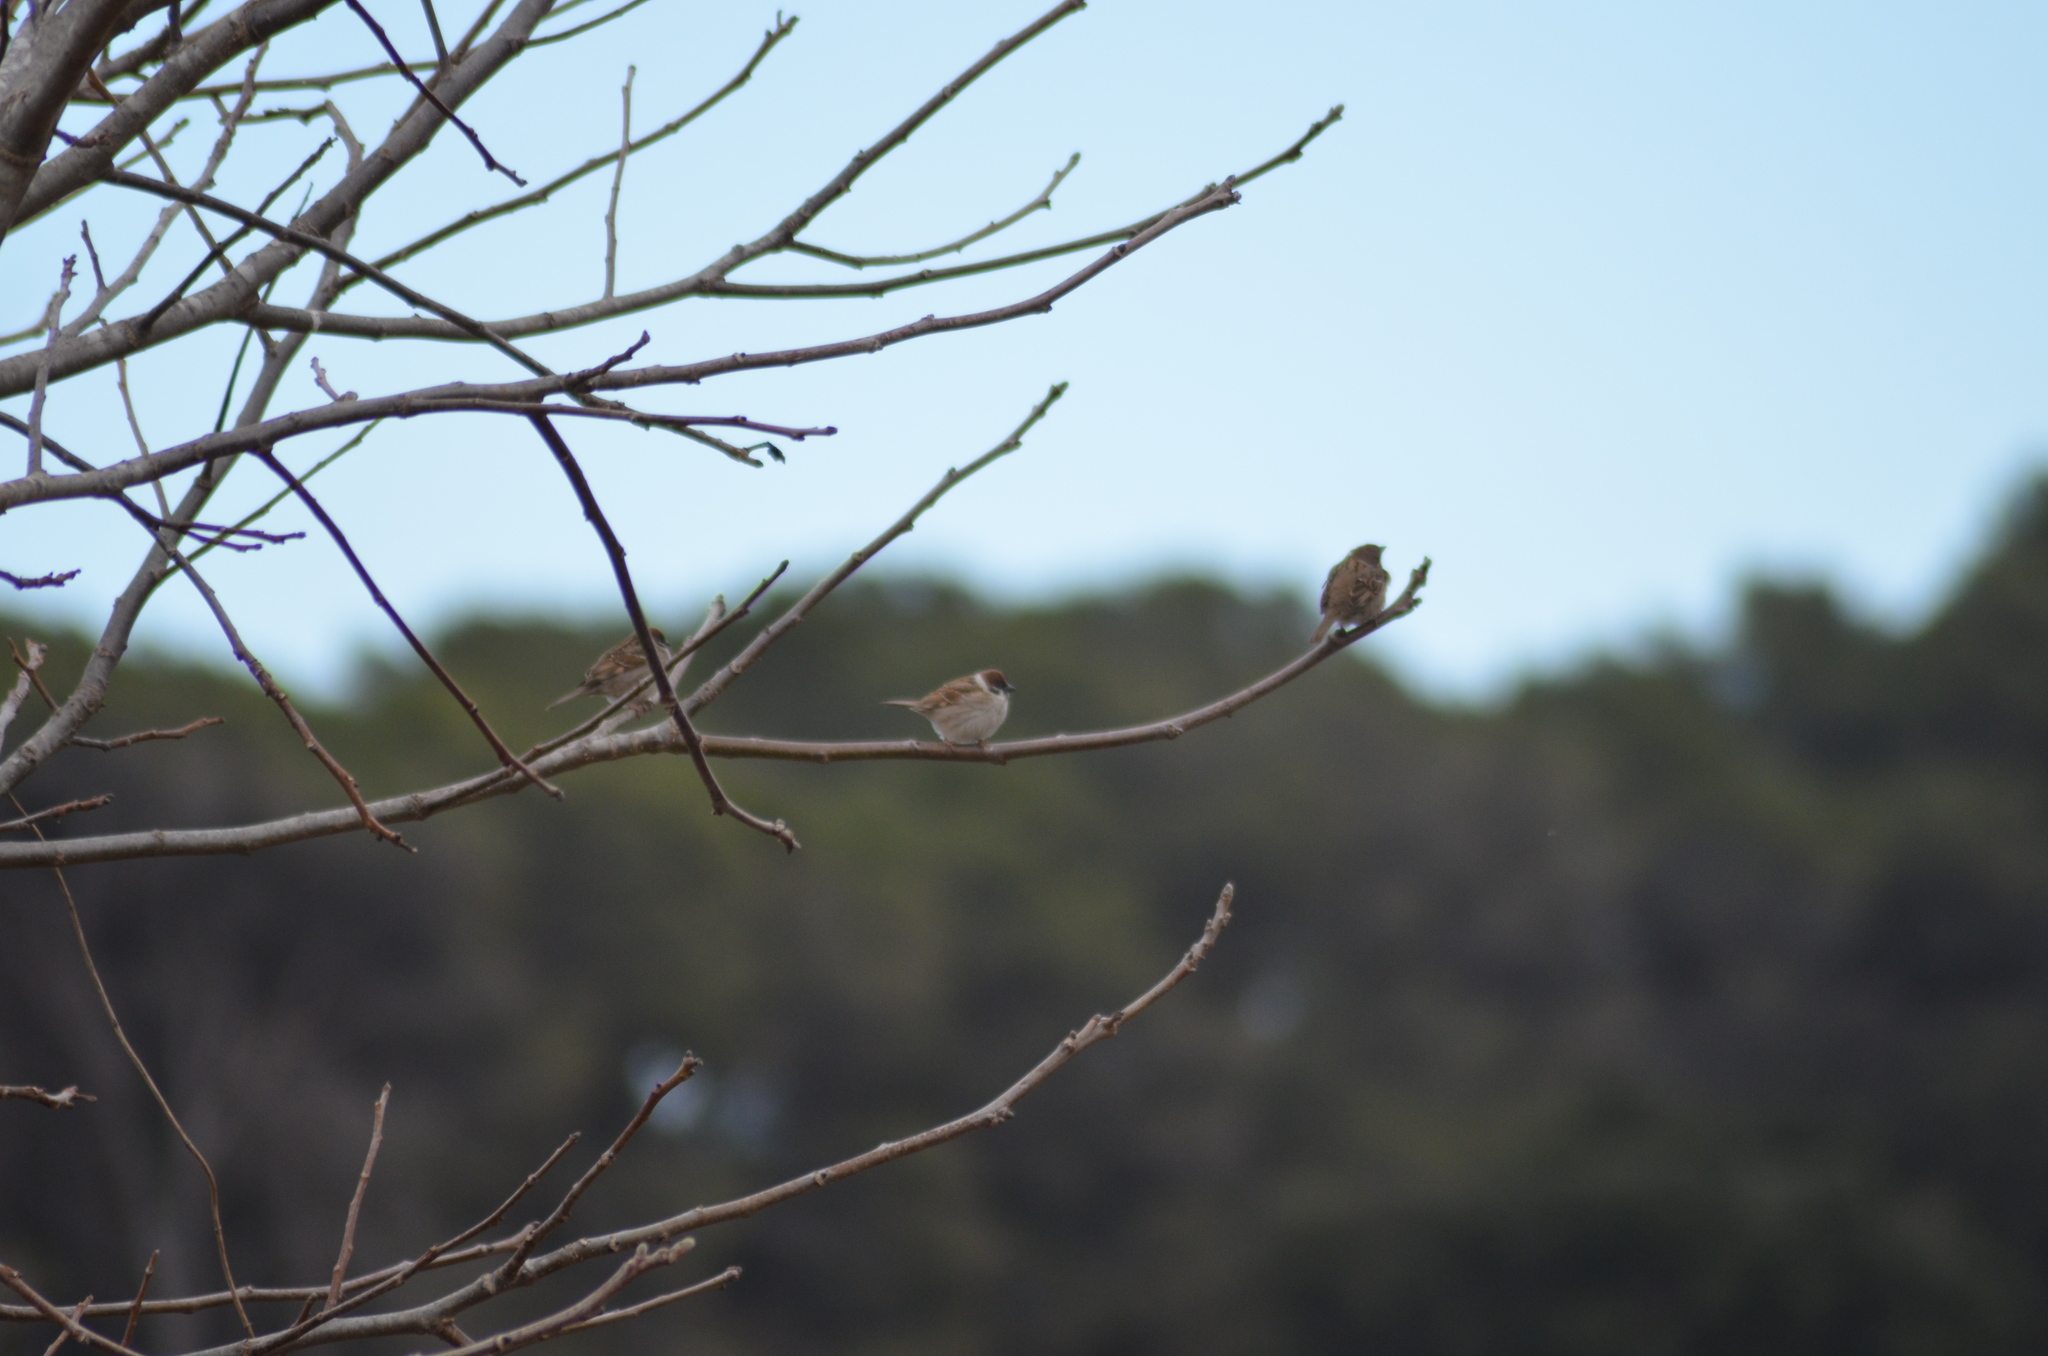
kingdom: Animalia
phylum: Chordata
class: Aves
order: Passeriformes
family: Passeridae
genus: Passer
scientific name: Passer montanus
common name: Eurasian tree sparrow
